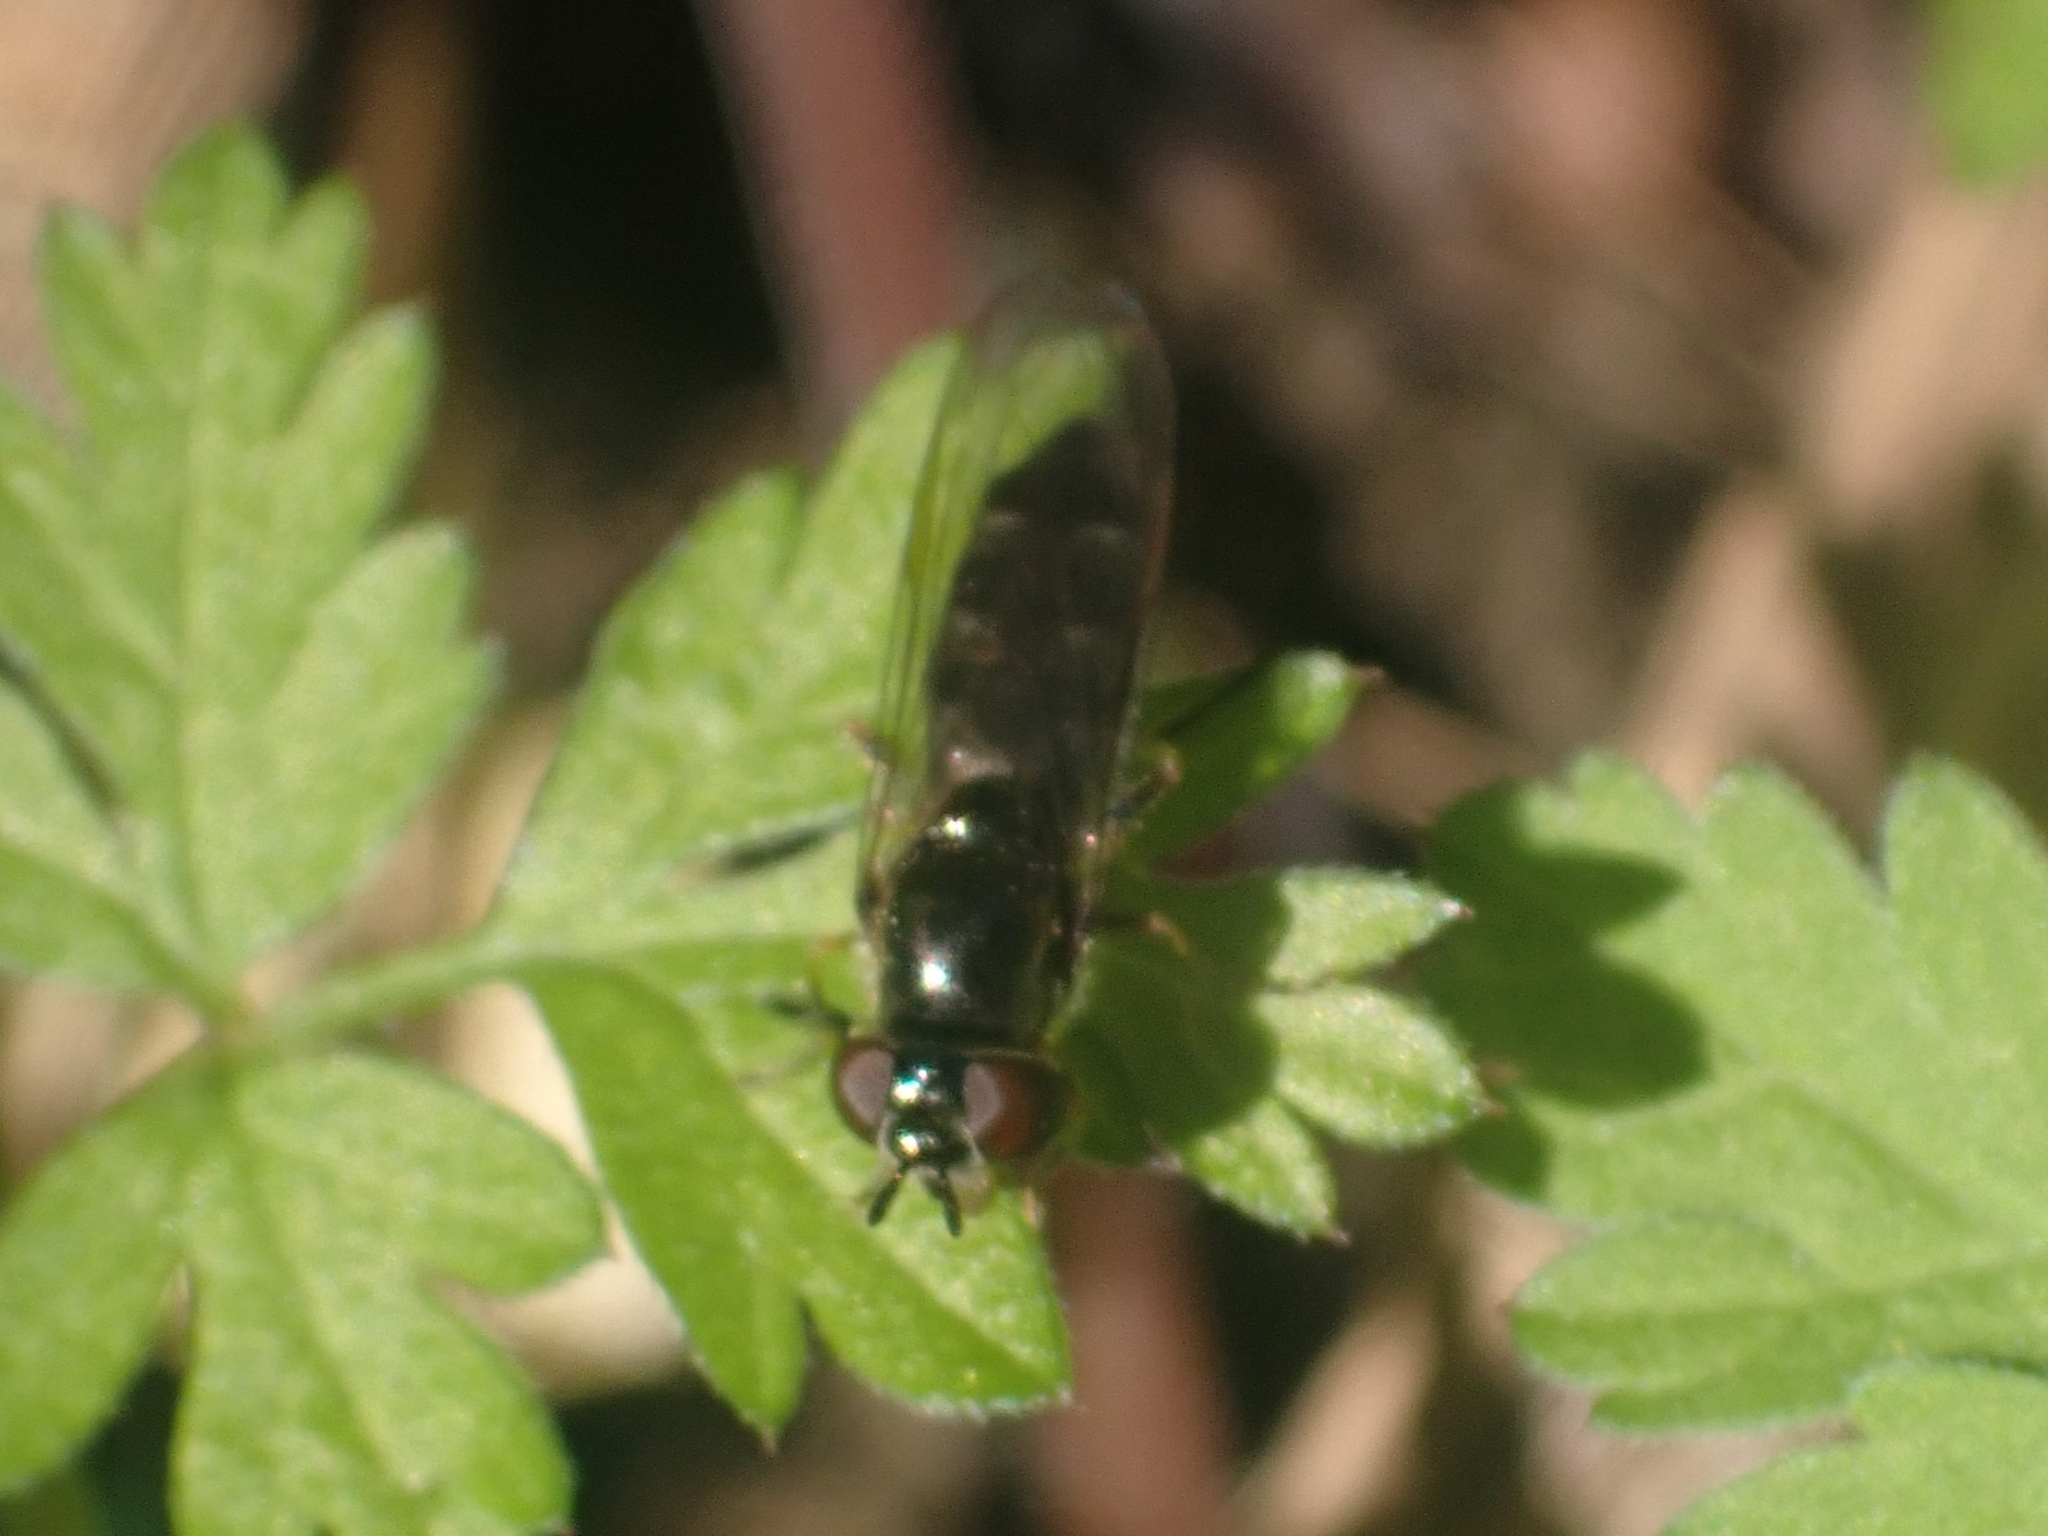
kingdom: Animalia
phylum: Arthropoda
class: Insecta
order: Diptera
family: Syrphidae
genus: Platycheirus
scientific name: Platycheirus albimanus
